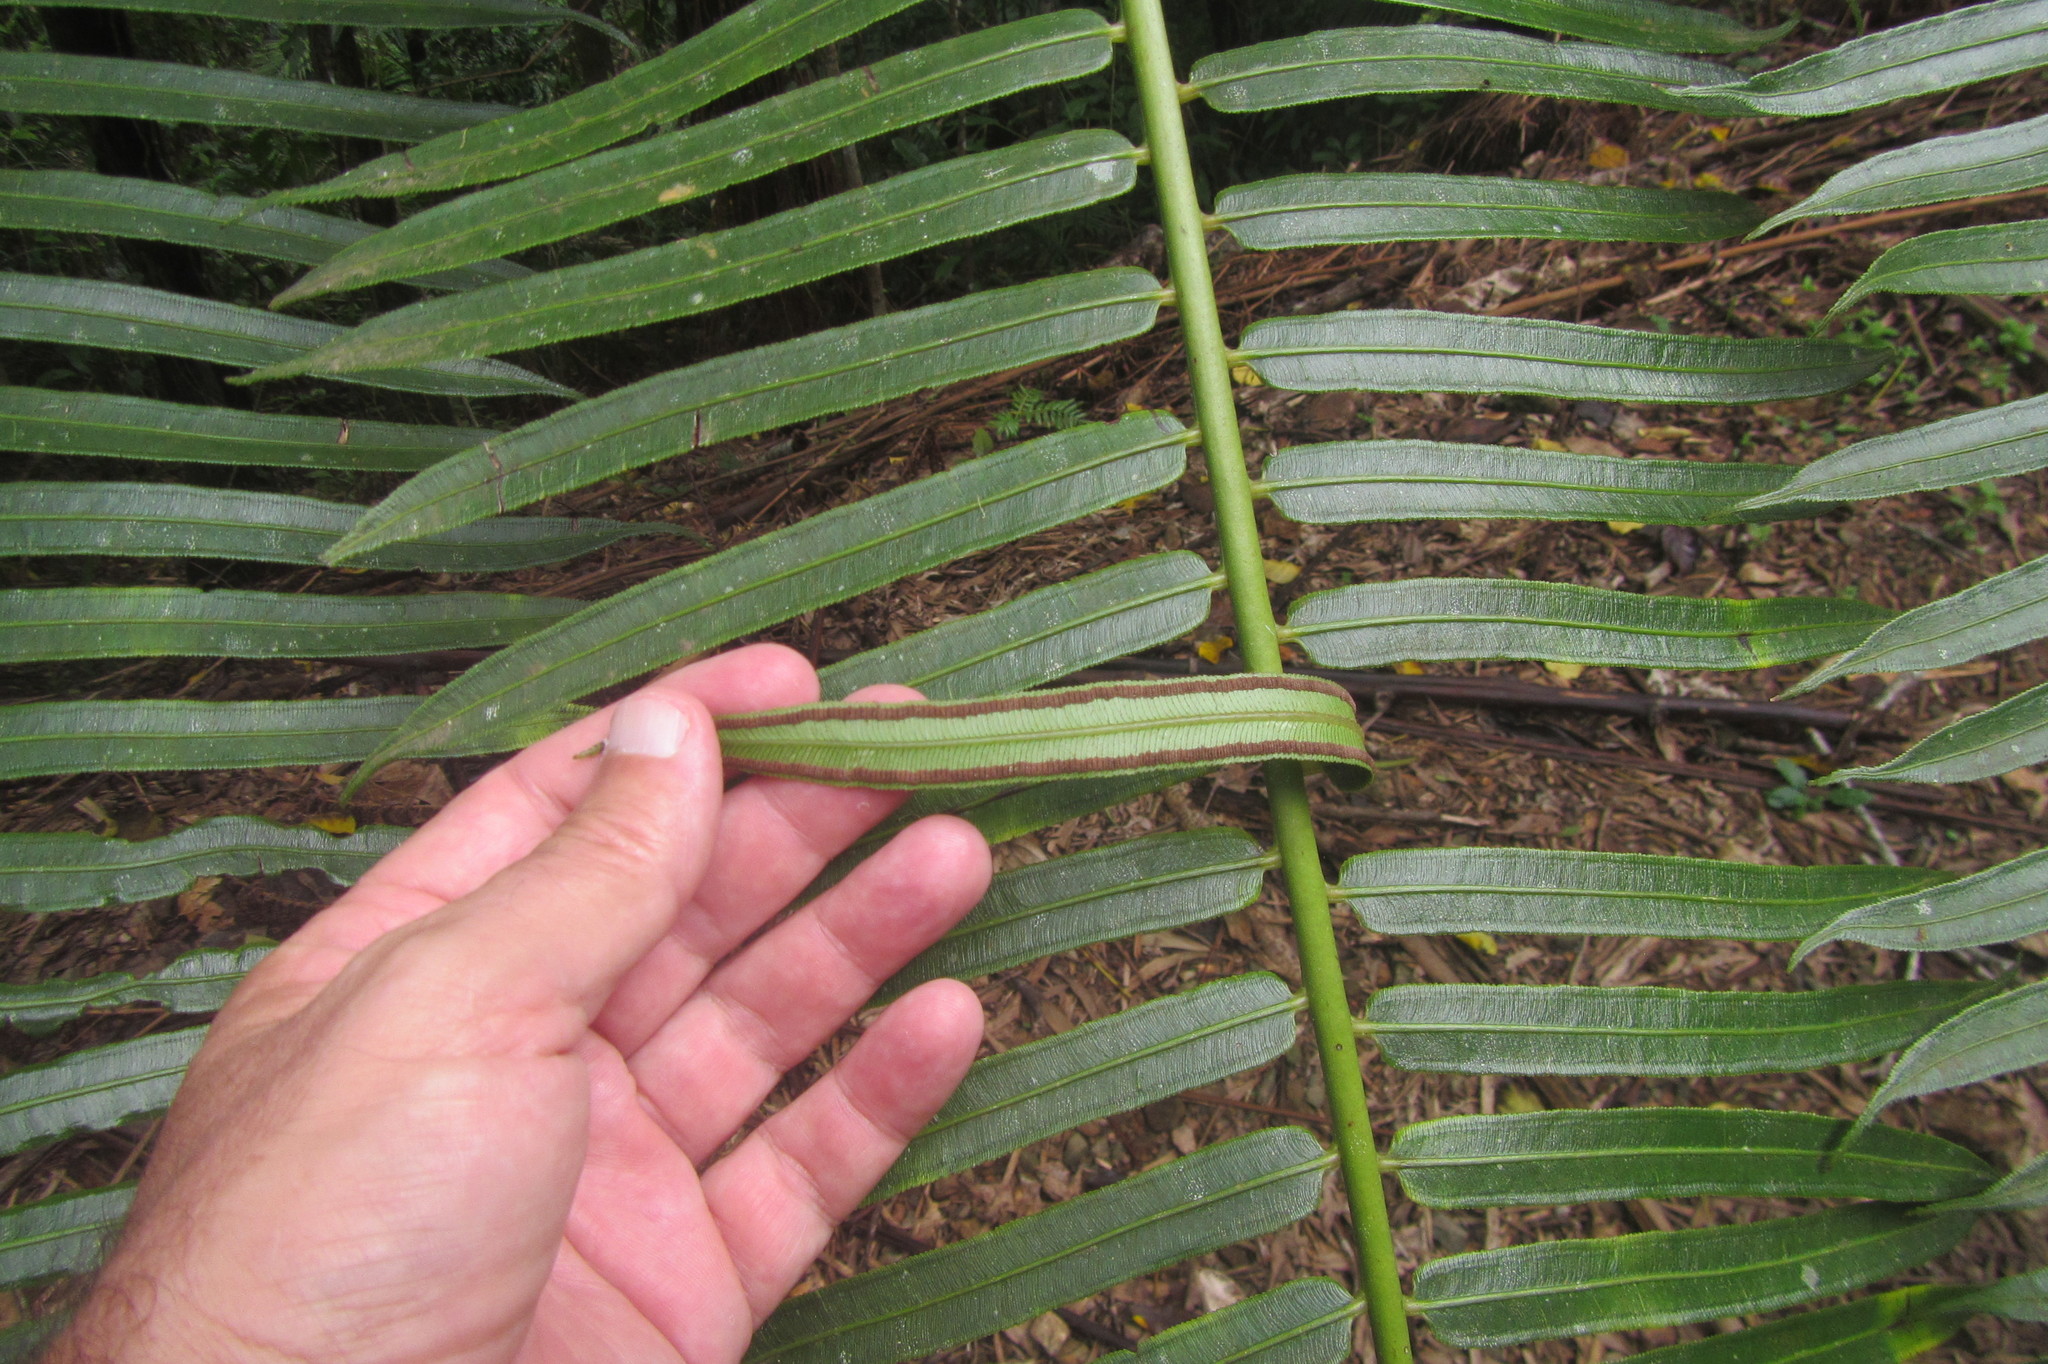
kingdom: Plantae
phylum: Tracheophyta
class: Polypodiopsida
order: Marattiales
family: Marattiaceae
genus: Angiopteris
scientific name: Angiopteris evecta
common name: Mule's-foot fern
